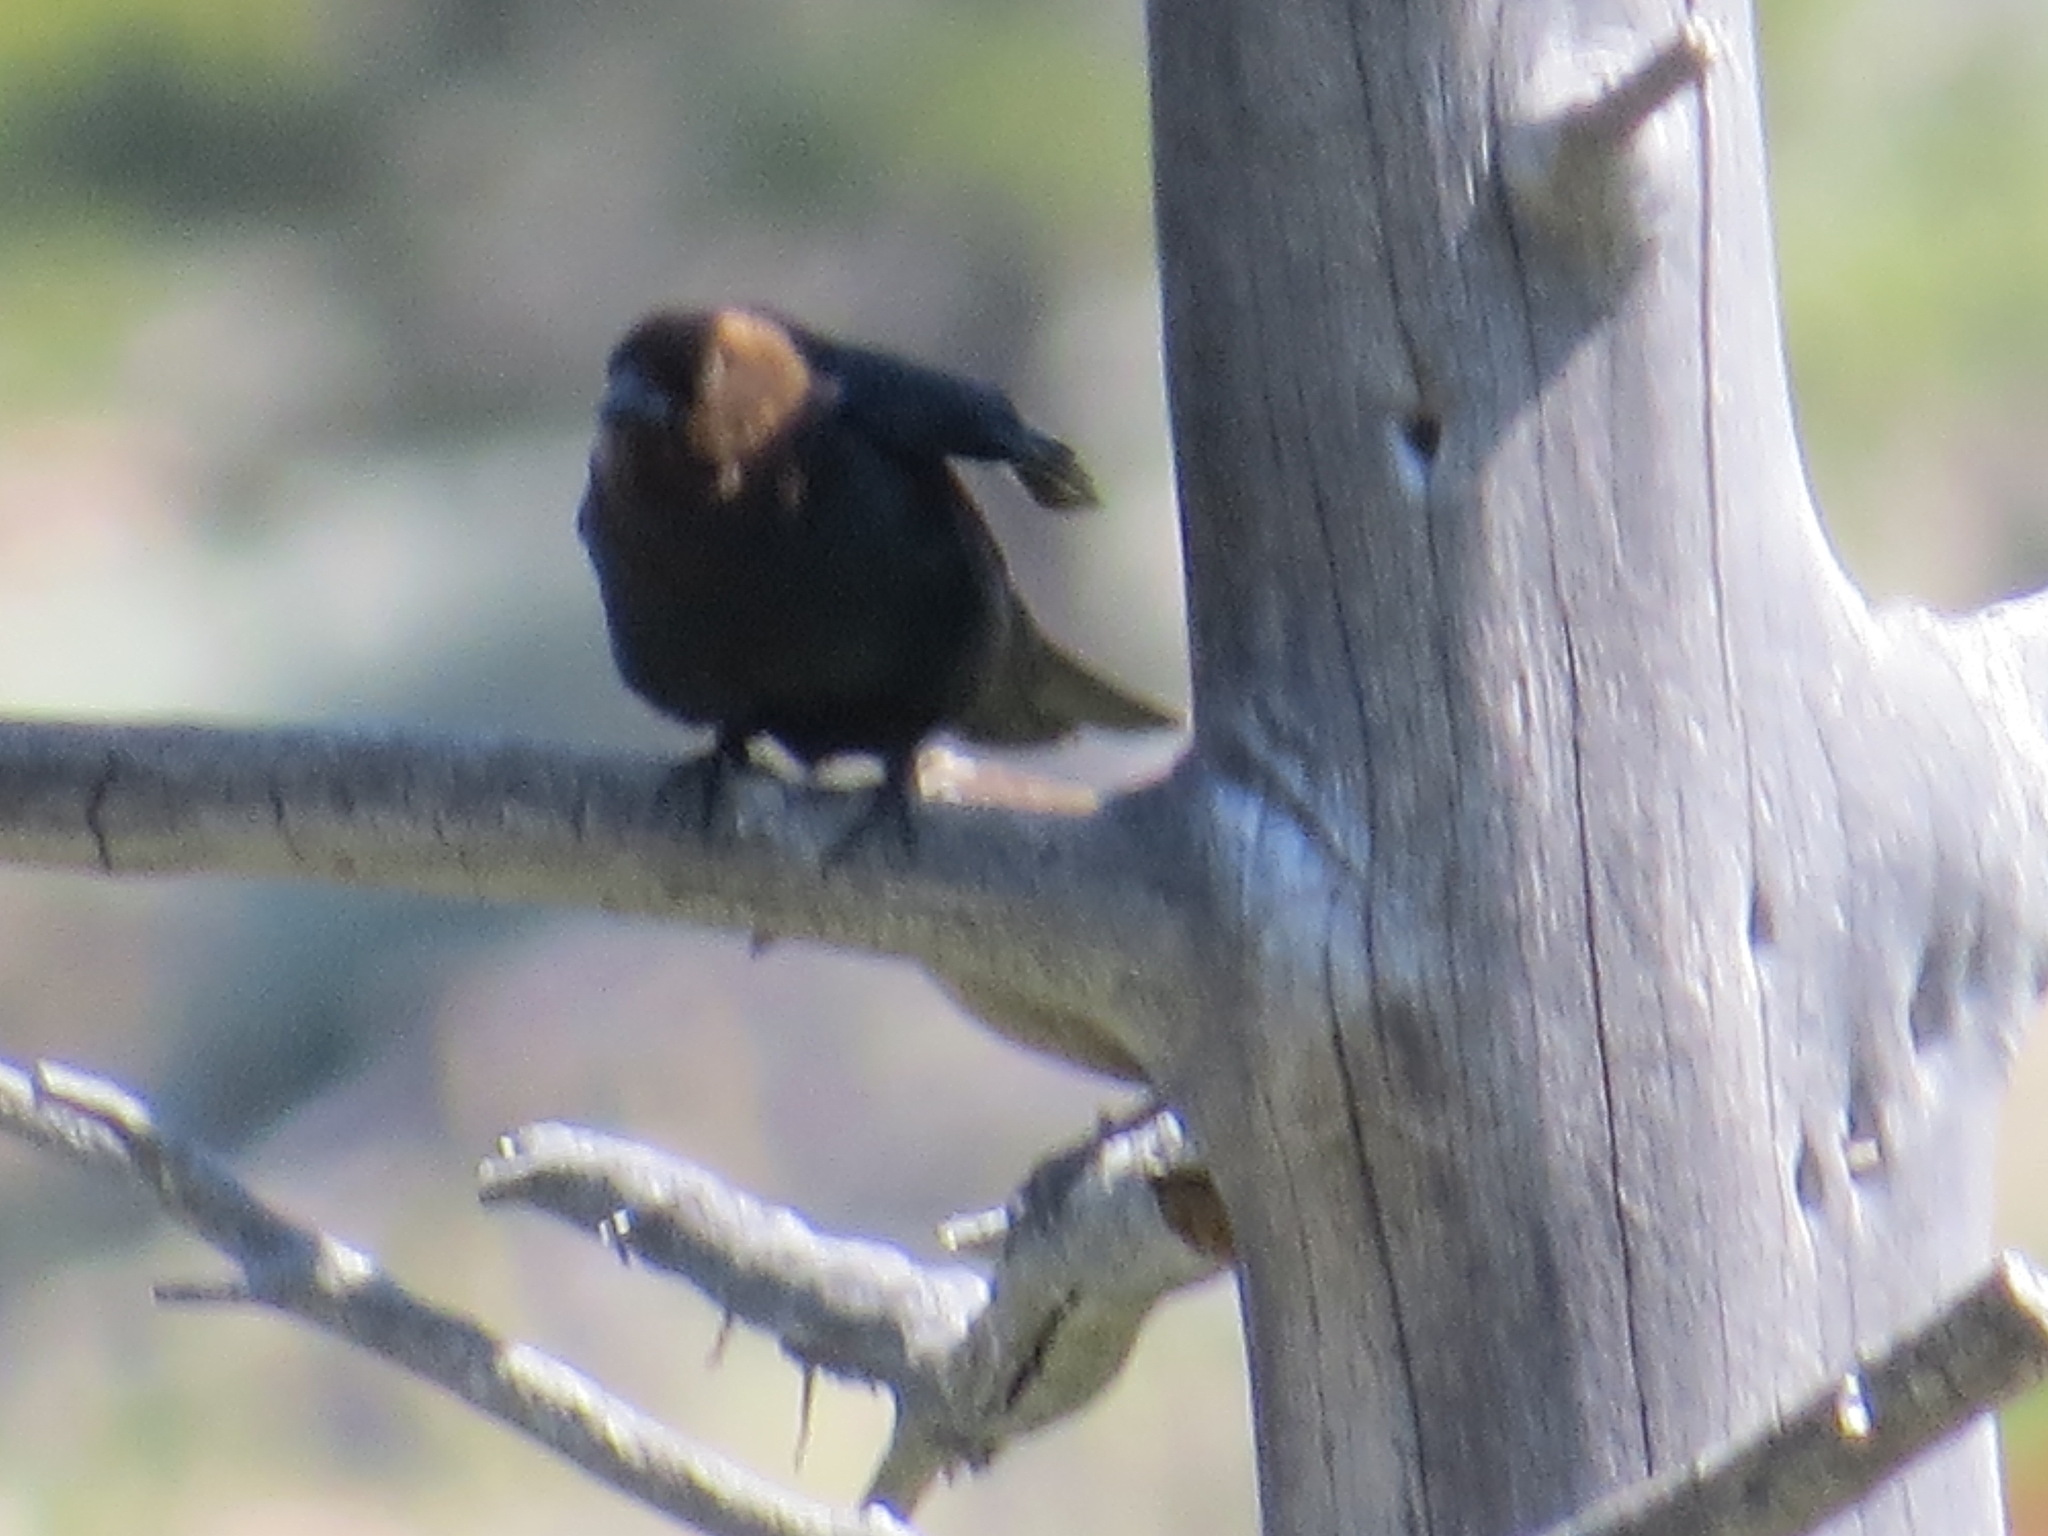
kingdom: Animalia
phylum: Chordata
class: Aves
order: Passeriformes
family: Icteridae
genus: Molothrus
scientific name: Molothrus ater
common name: Brown-headed cowbird
